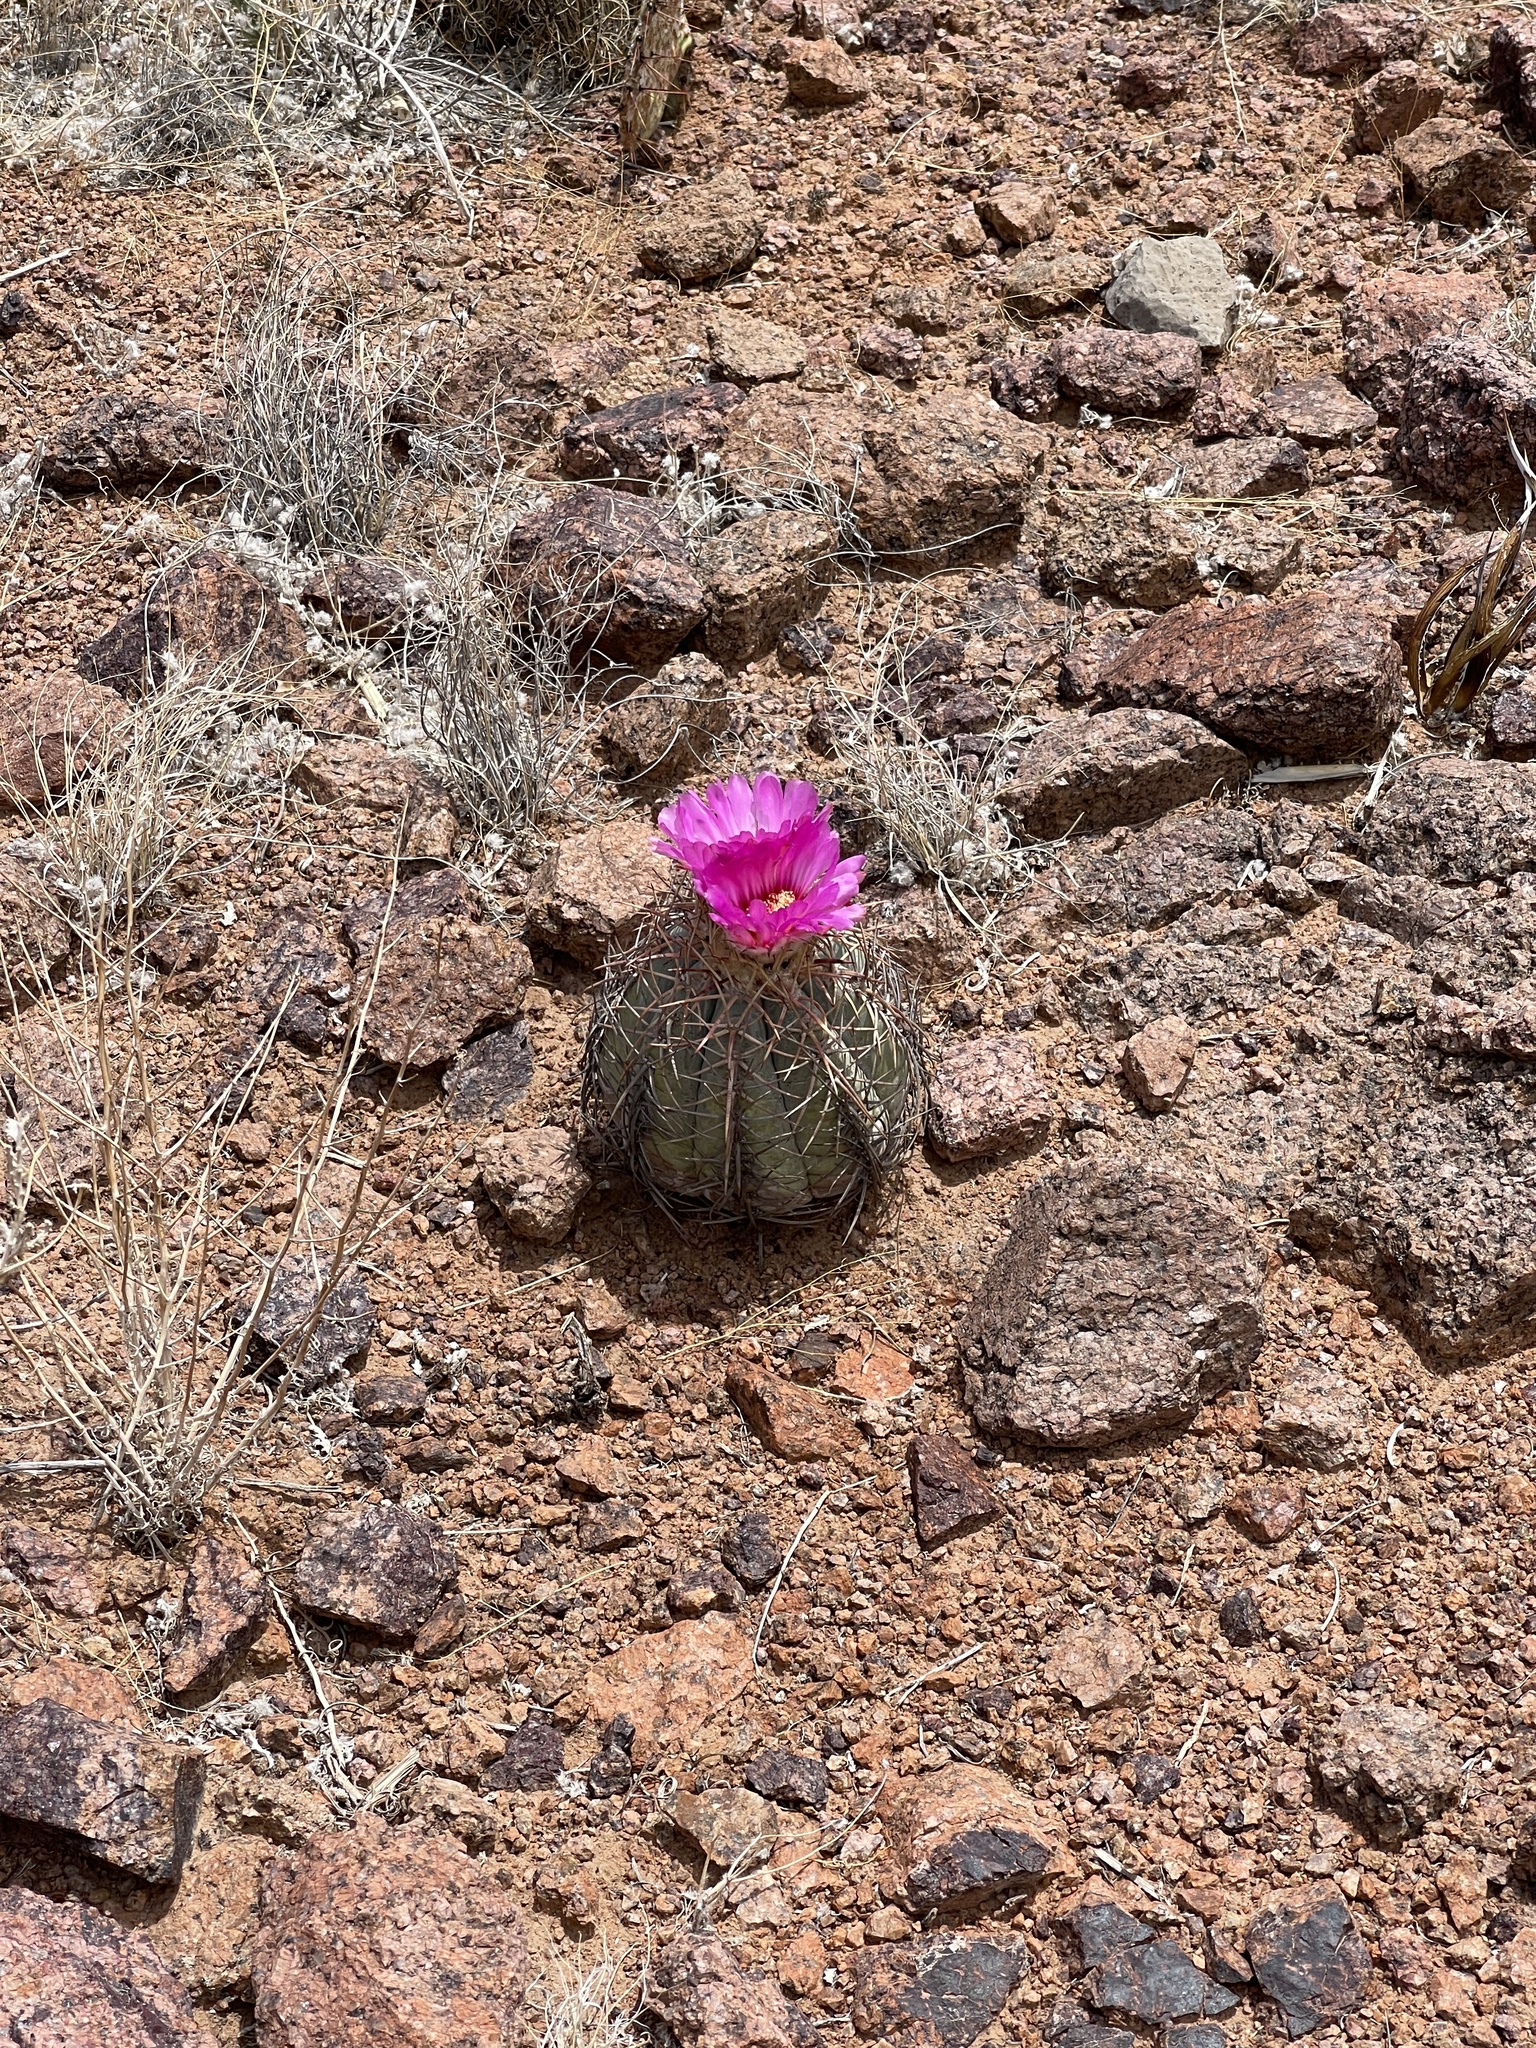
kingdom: Plantae
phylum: Tracheophyta
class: Magnoliopsida
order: Caryophyllales
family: Cactaceae
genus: Echinocactus
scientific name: Echinocactus horizonthalonius
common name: Devilshead
